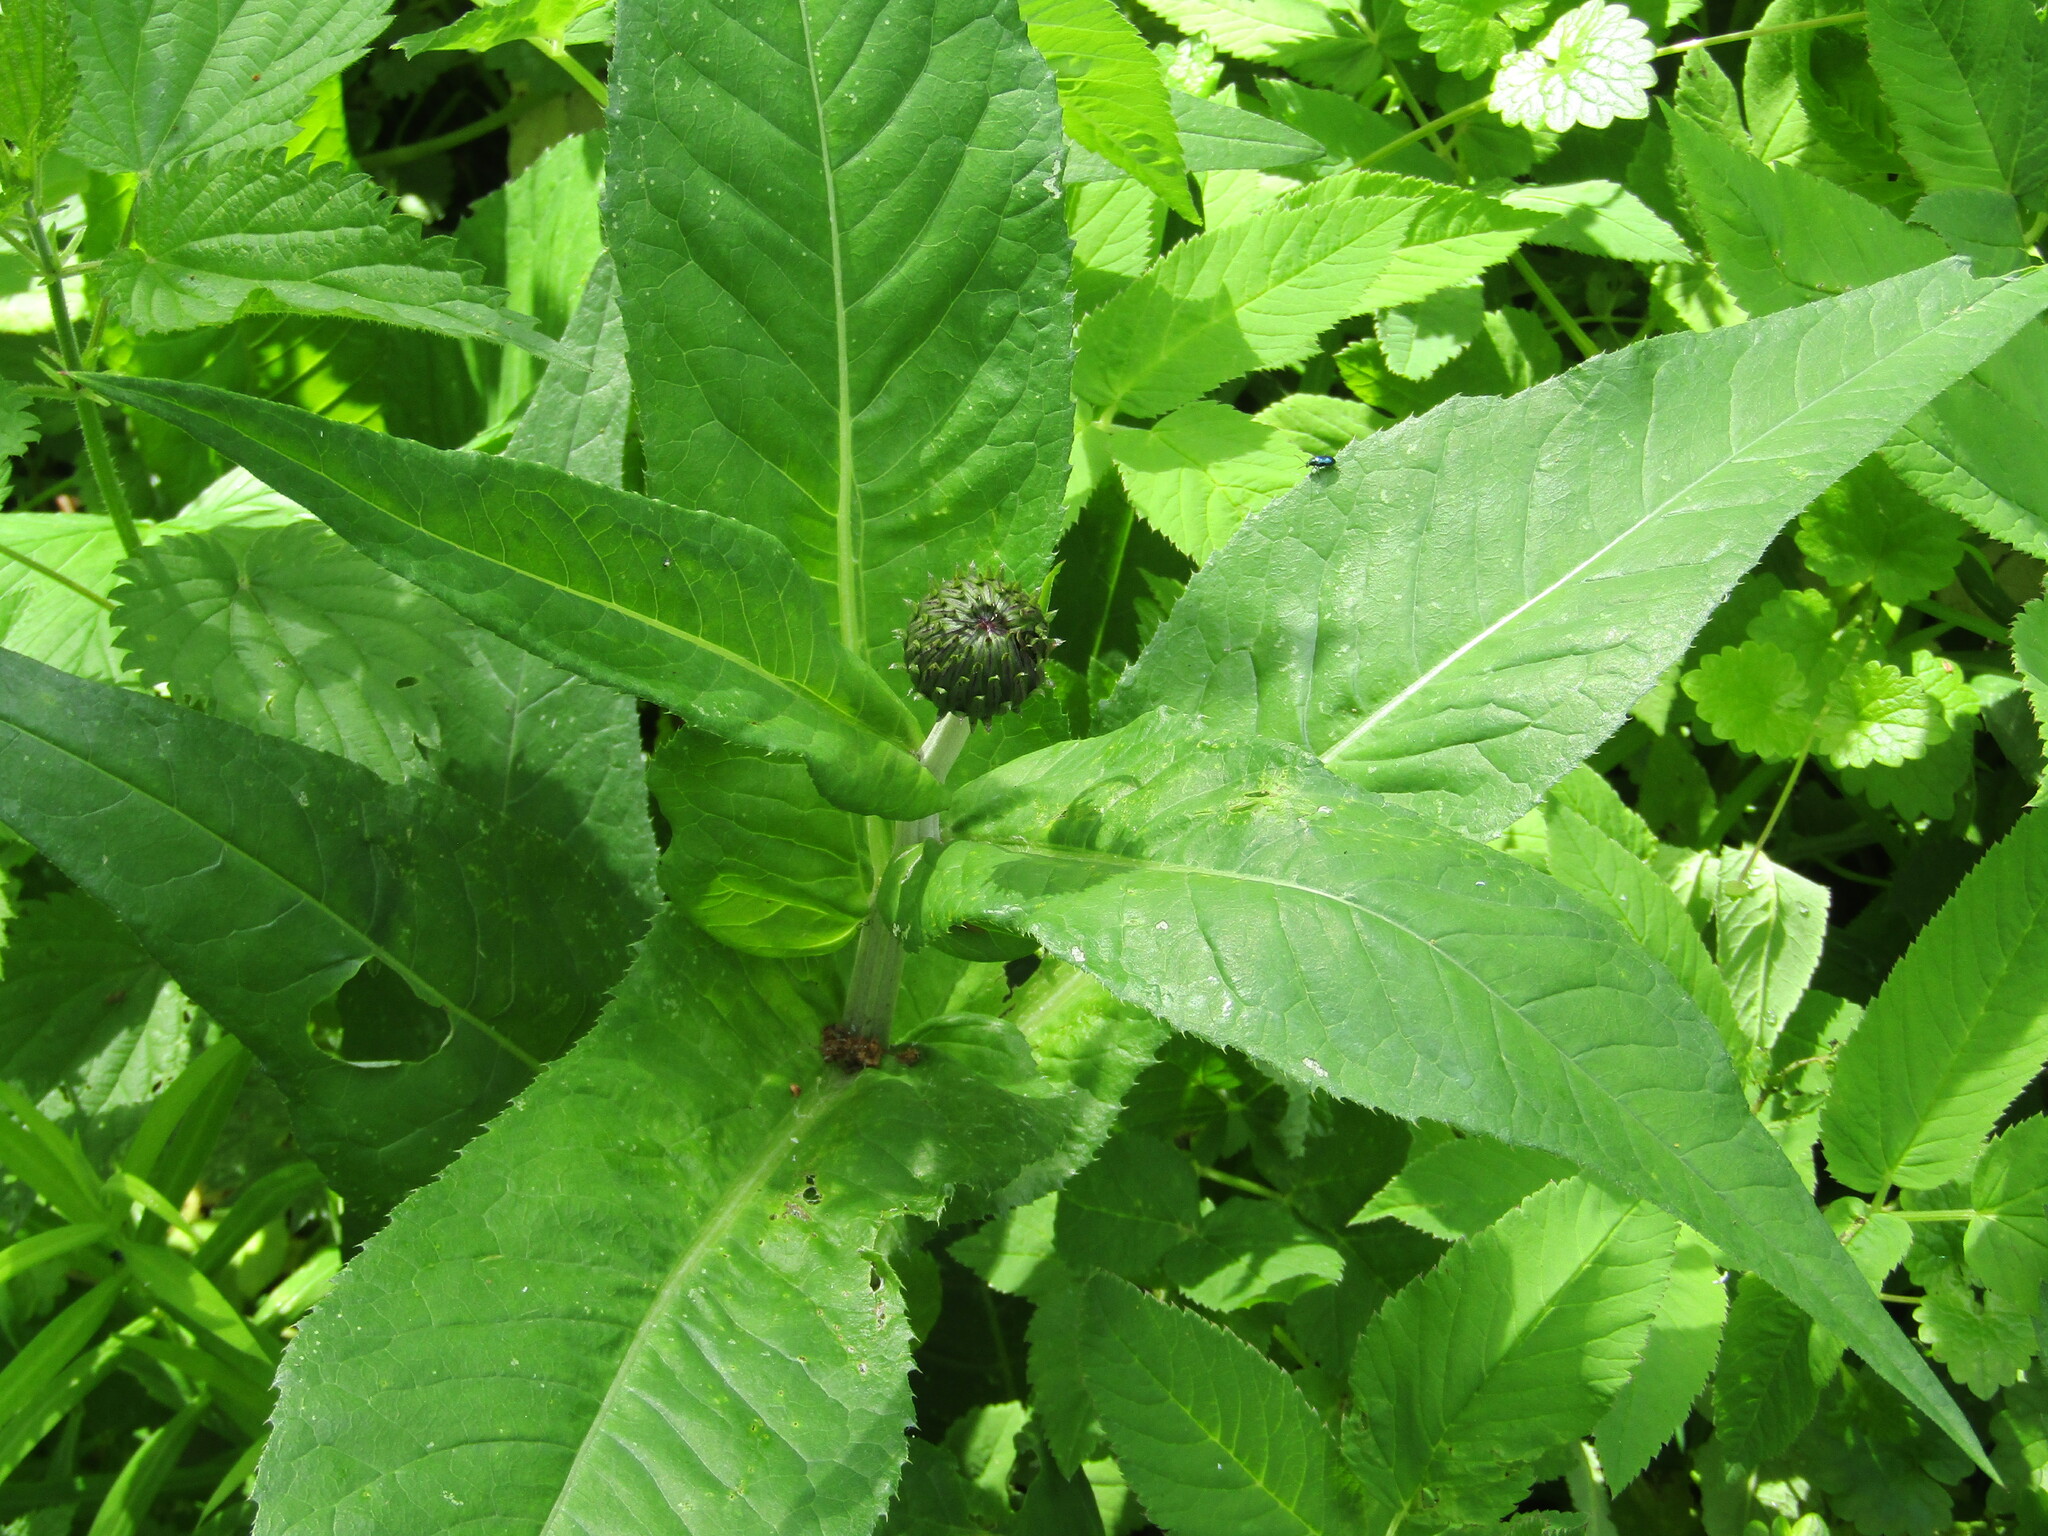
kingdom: Plantae
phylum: Tracheophyta
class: Magnoliopsida
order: Asterales
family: Asteraceae
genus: Cirsium
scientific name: Cirsium heterophyllum
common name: Melancholy thistle
